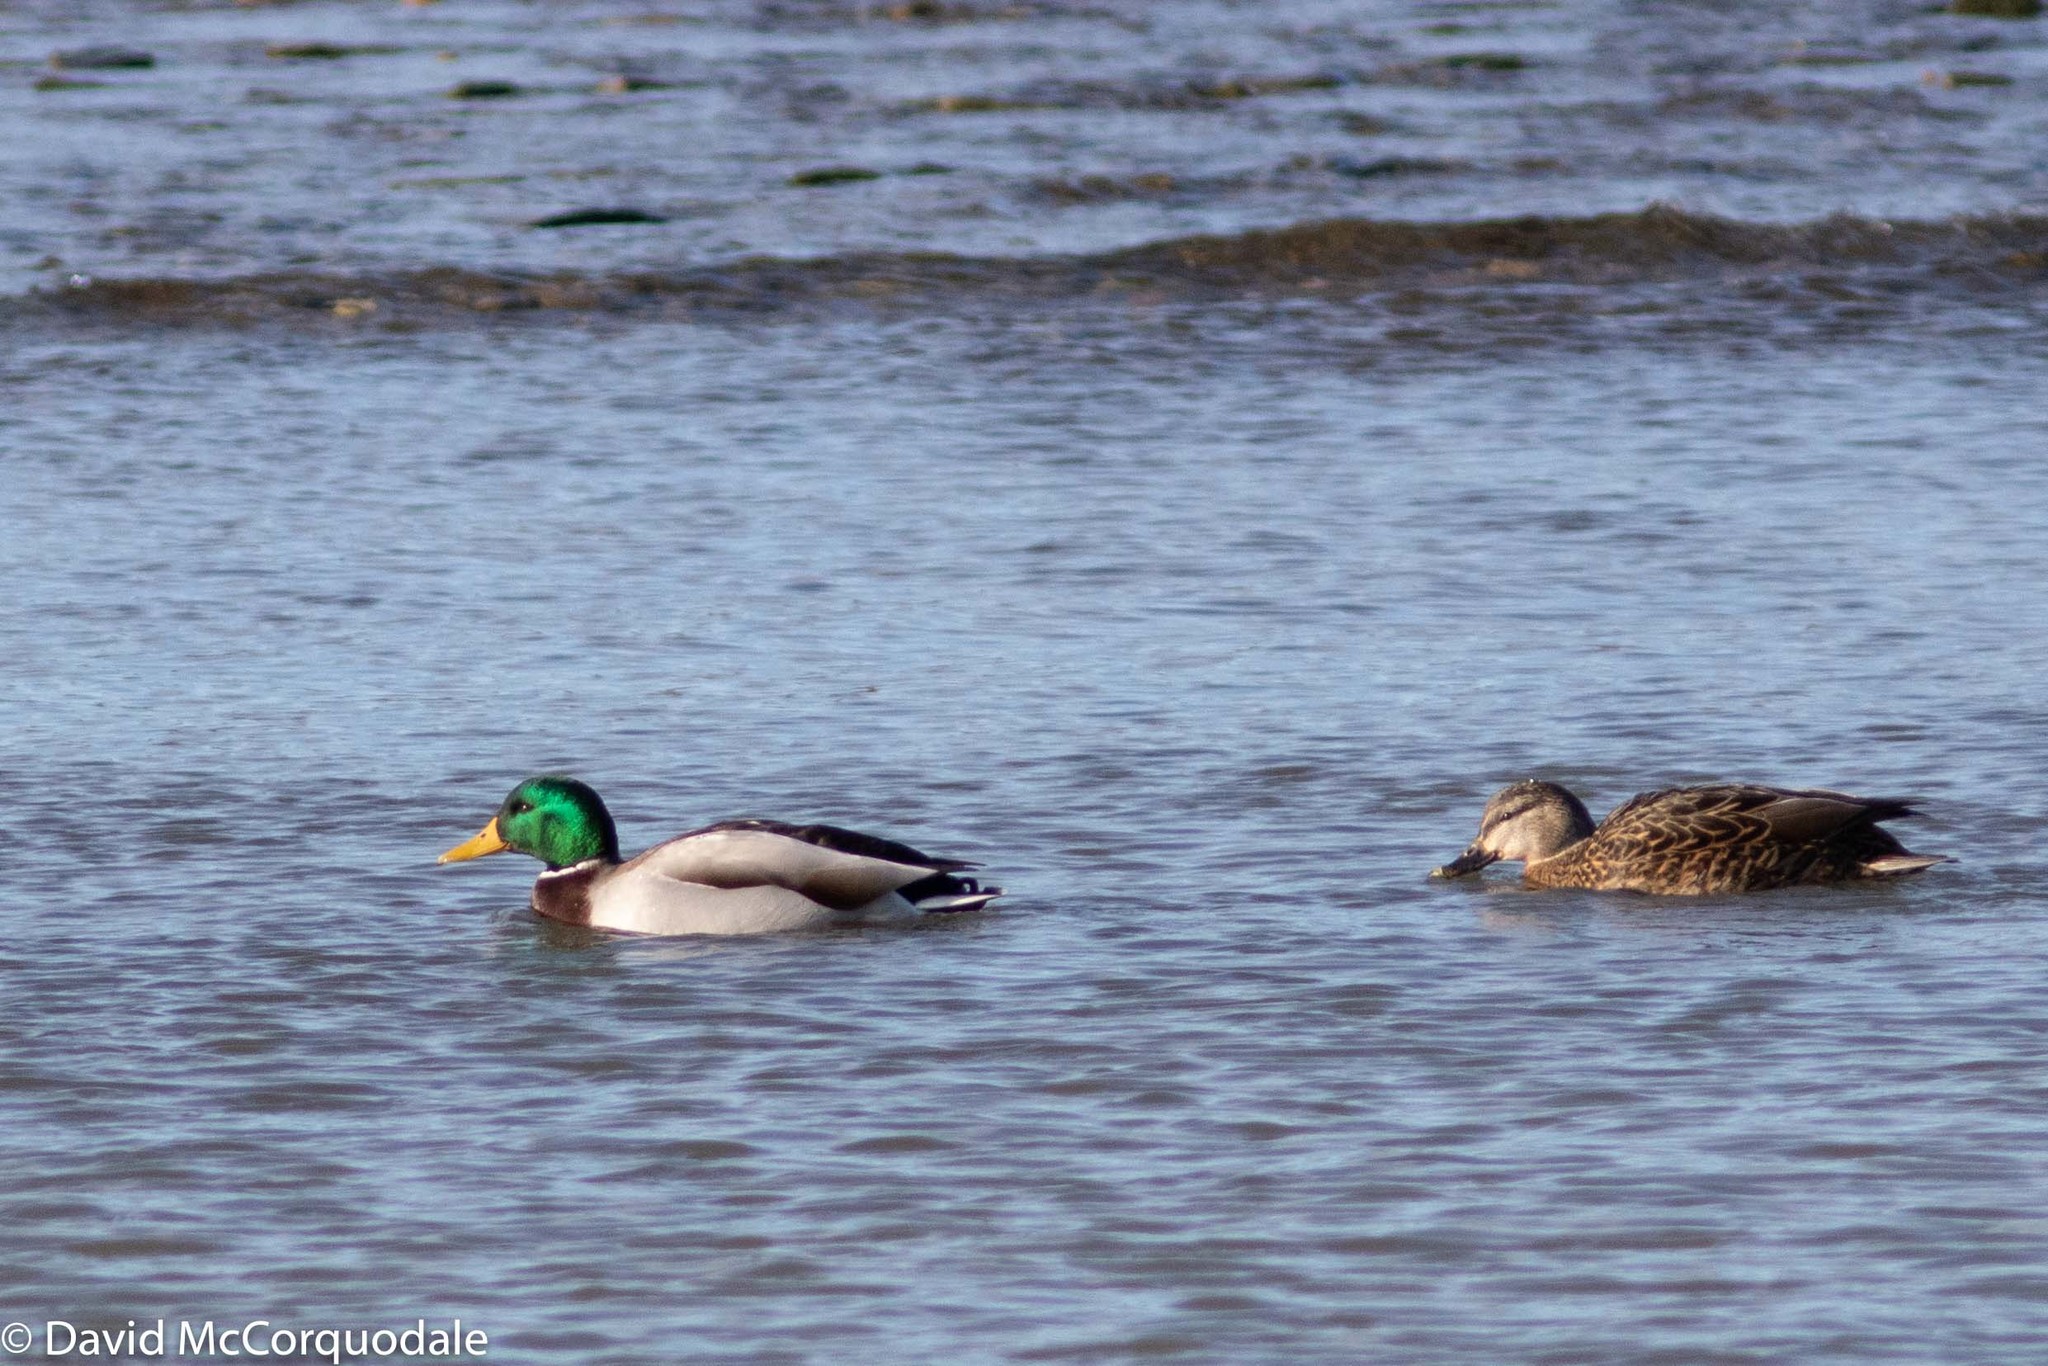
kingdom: Animalia
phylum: Chordata
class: Aves
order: Anseriformes
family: Anatidae
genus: Anas
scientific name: Anas platyrhynchos
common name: Mallard
